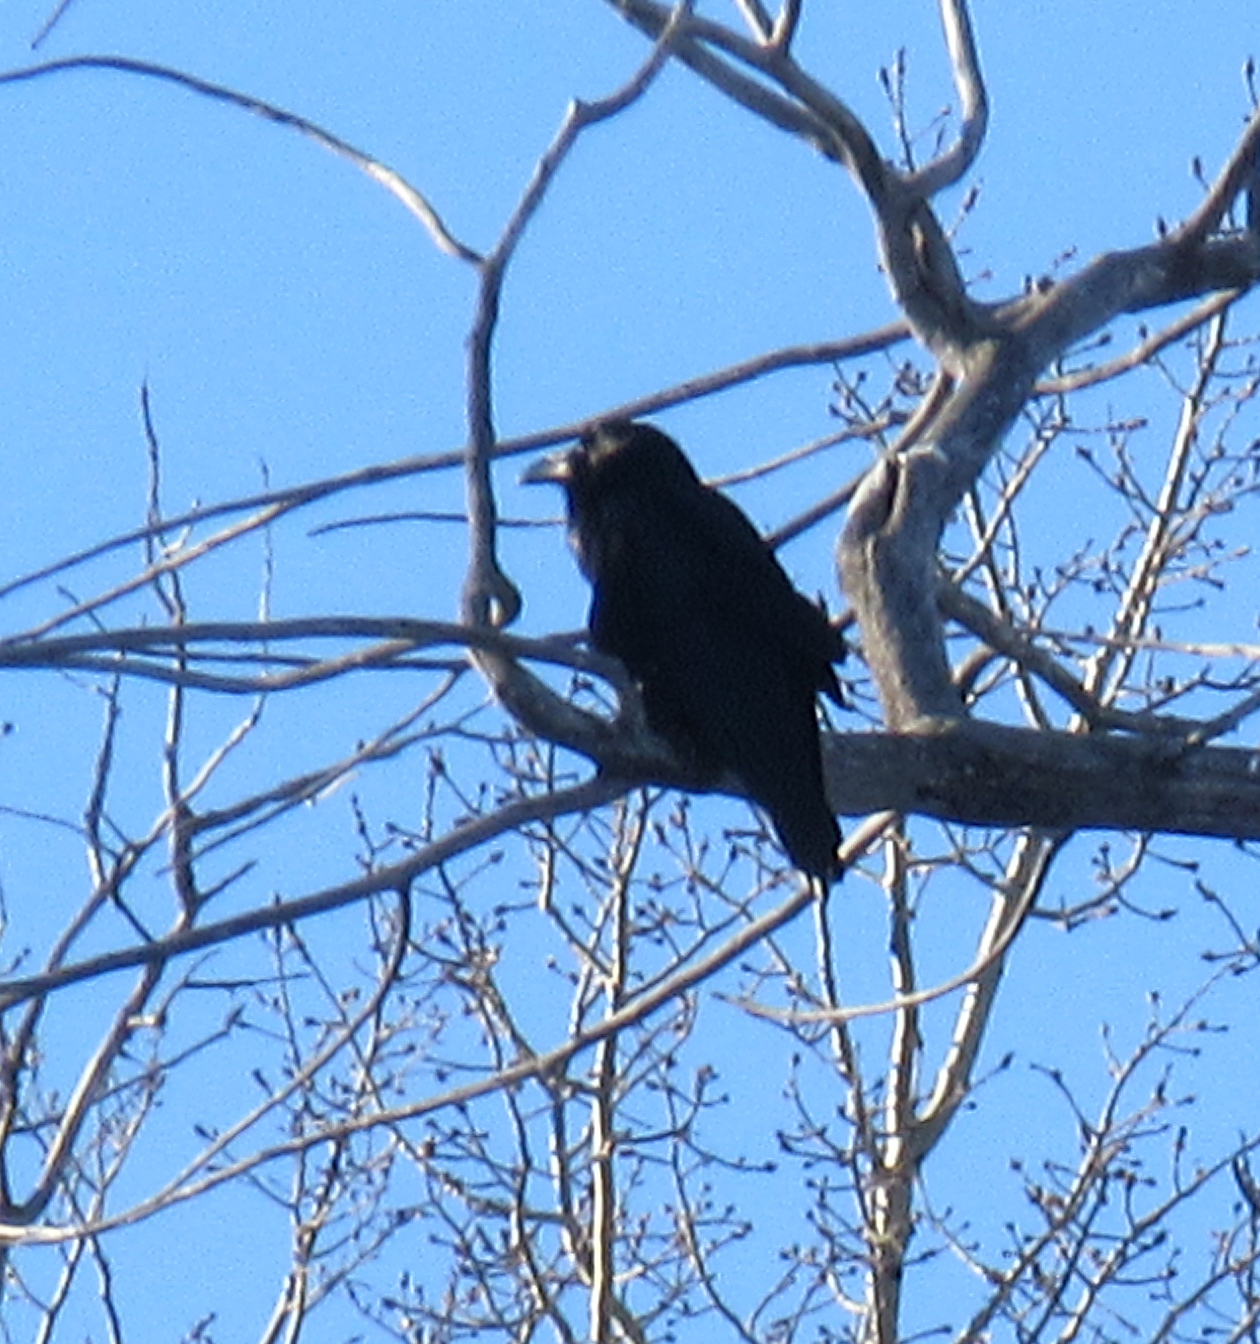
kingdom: Animalia
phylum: Chordata
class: Aves
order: Passeriformes
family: Corvidae
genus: Corvus
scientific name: Corvus corax
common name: Common raven
